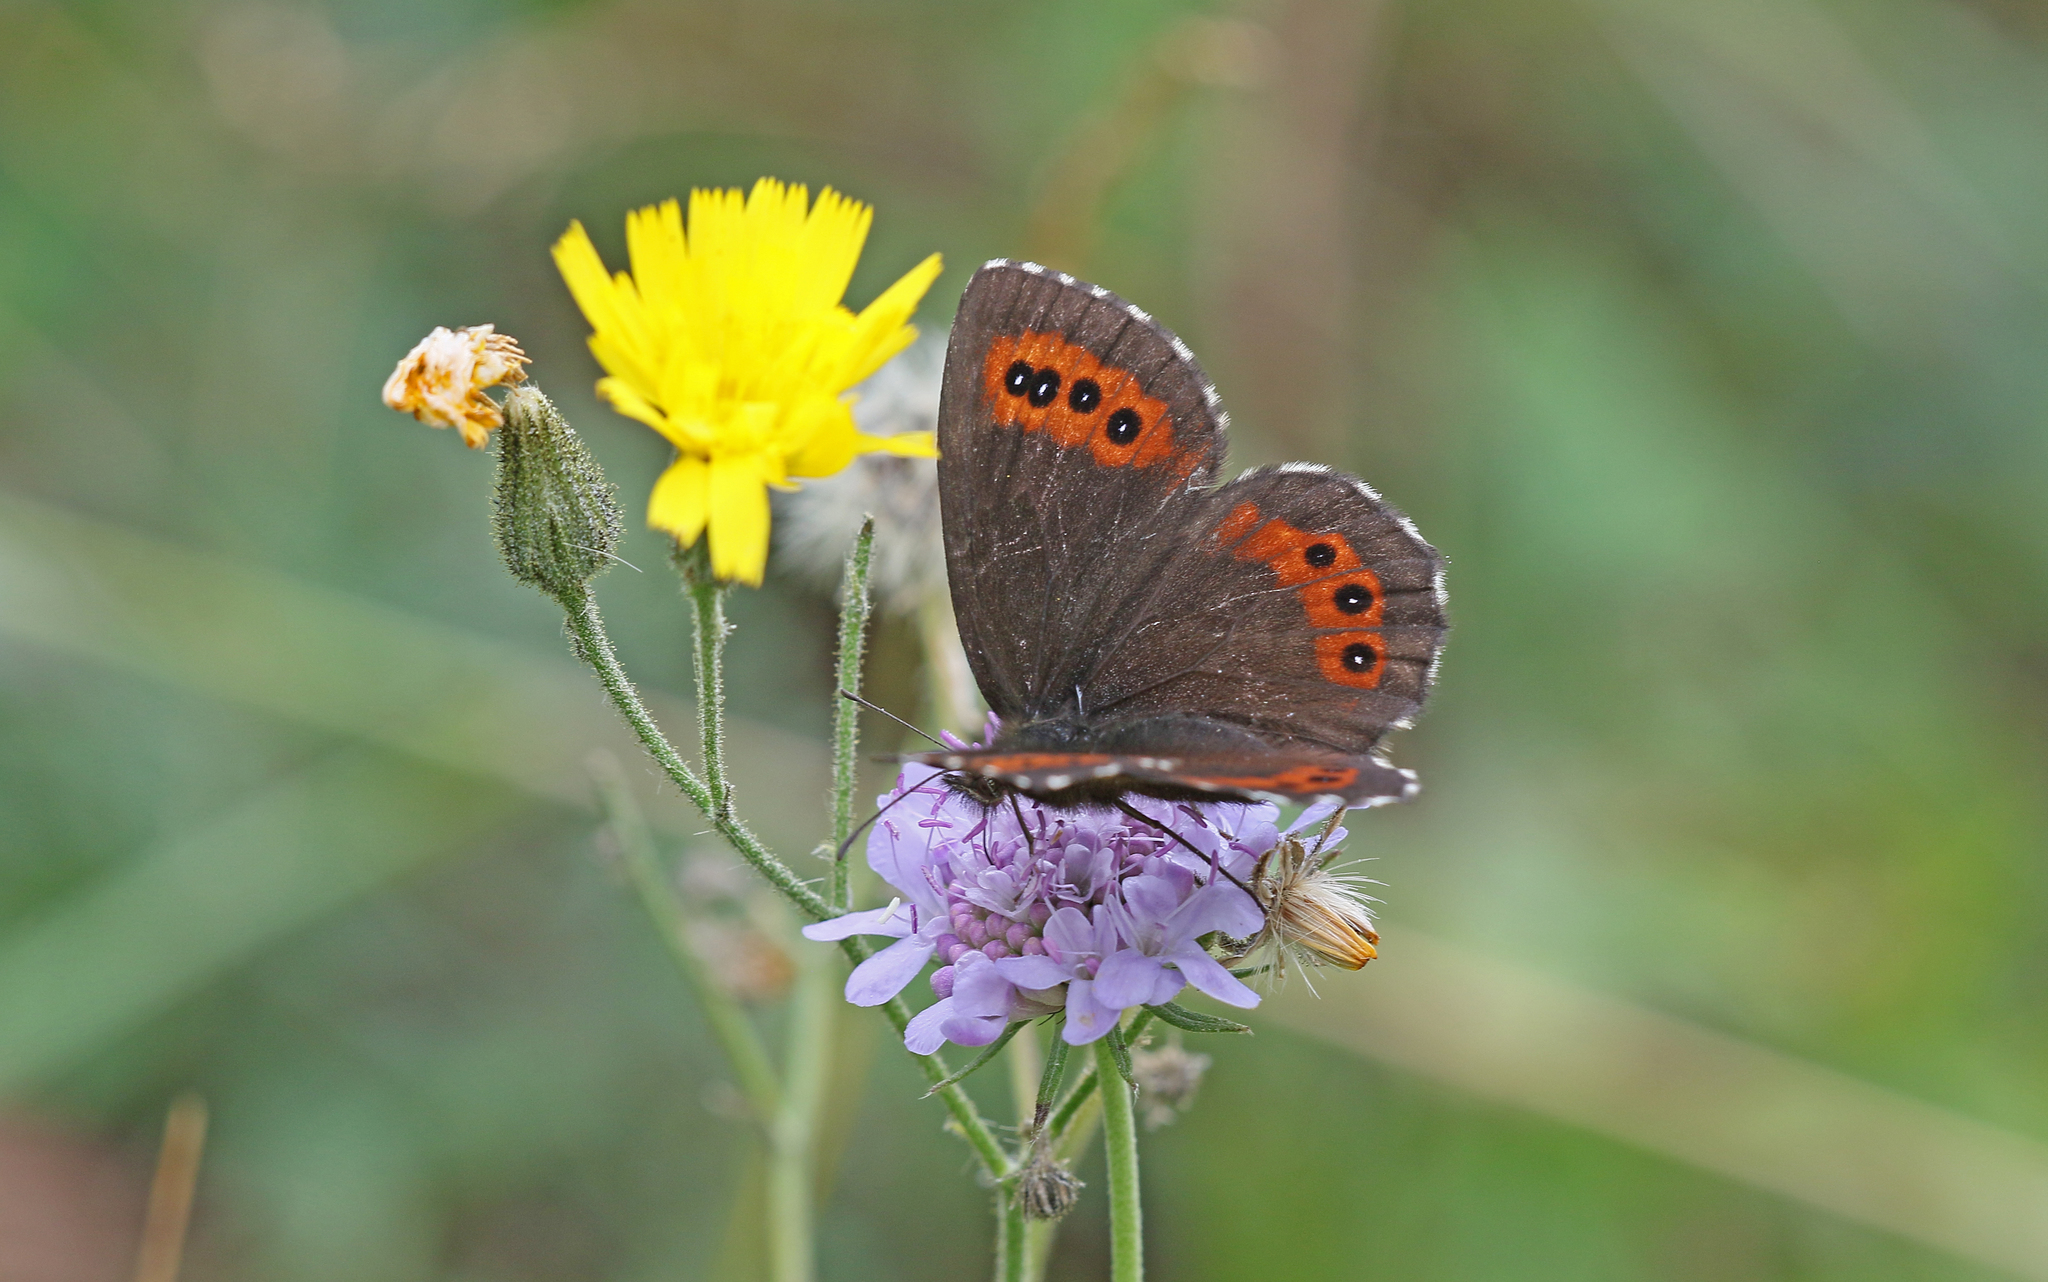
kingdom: Animalia
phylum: Arthropoda
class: Insecta
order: Lepidoptera
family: Nymphalidae
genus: Erebia
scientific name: Erebia ligea
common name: Arran brown
